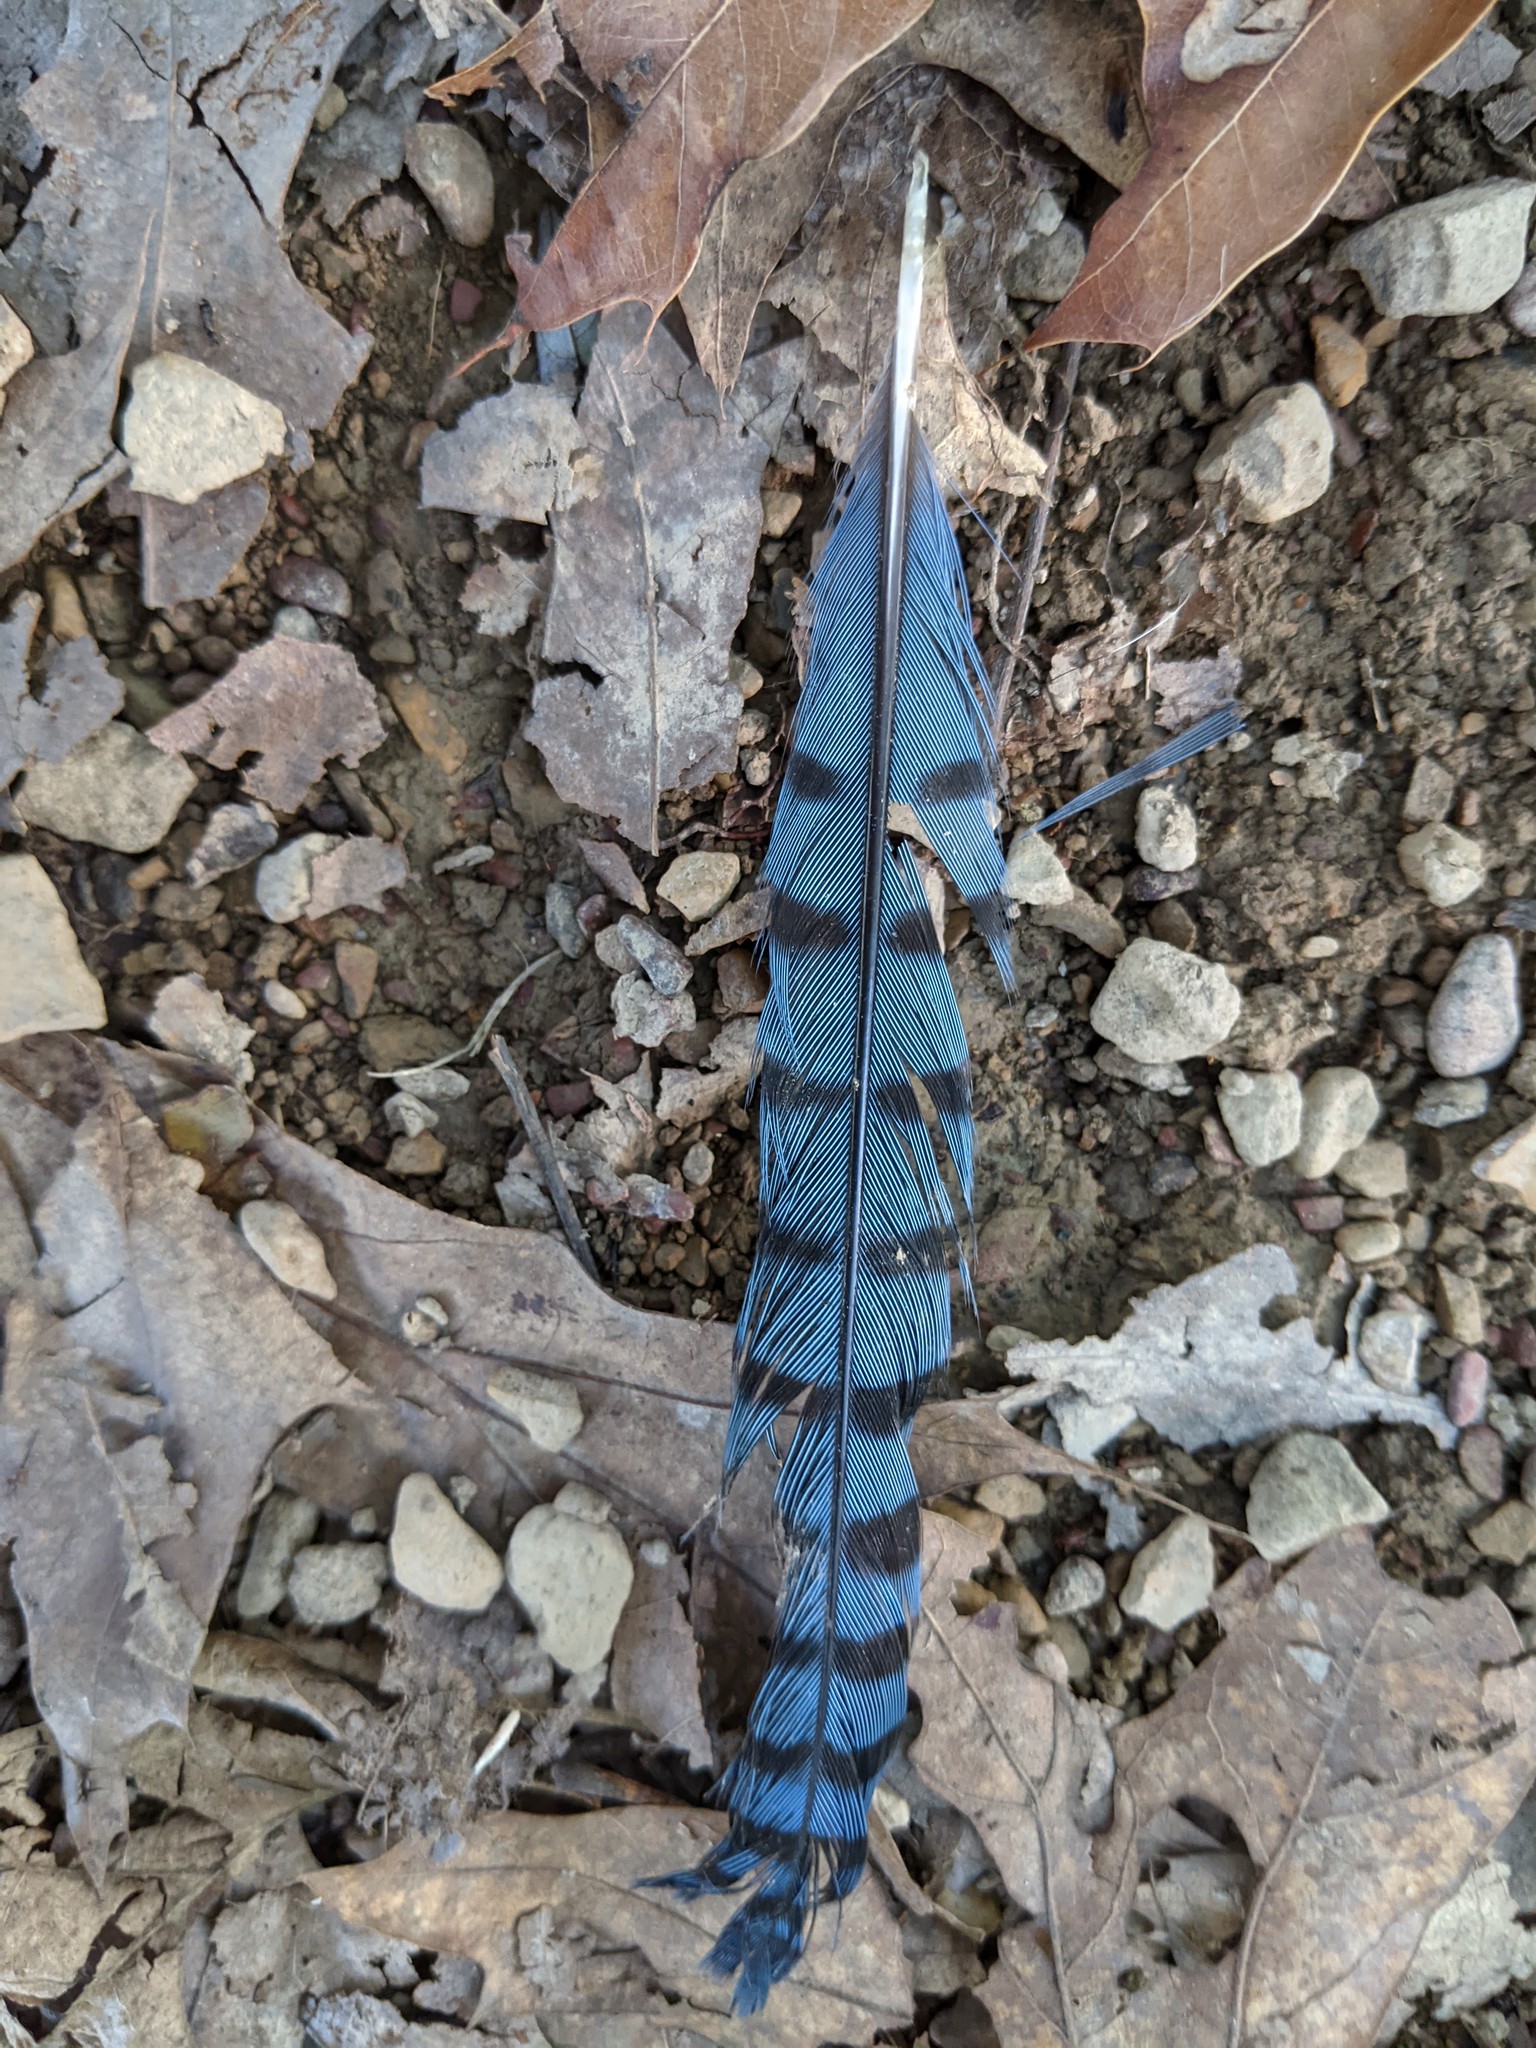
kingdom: Animalia
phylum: Chordata
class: Aves
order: Passeriformes
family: Corvidae
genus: Cyanocitta
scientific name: Cyanocitta cristata
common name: Blue jay
